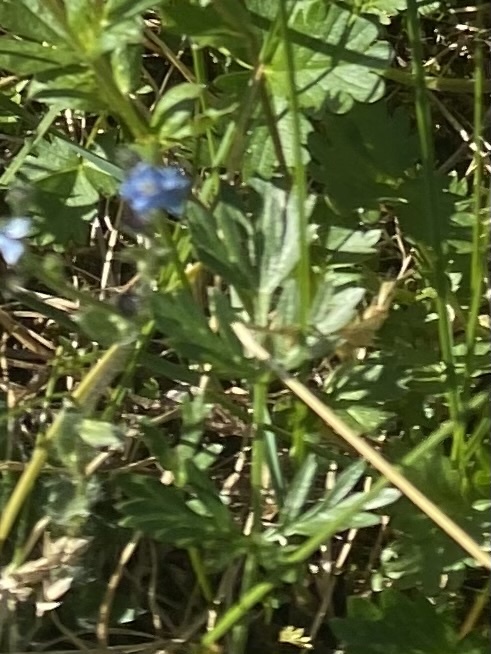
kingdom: Plantae
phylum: Tracheophyta
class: Magnoliopsida
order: Apiales
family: Apiaceae
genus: Pachypleurum
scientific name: Pachypleurum mutellinoides
